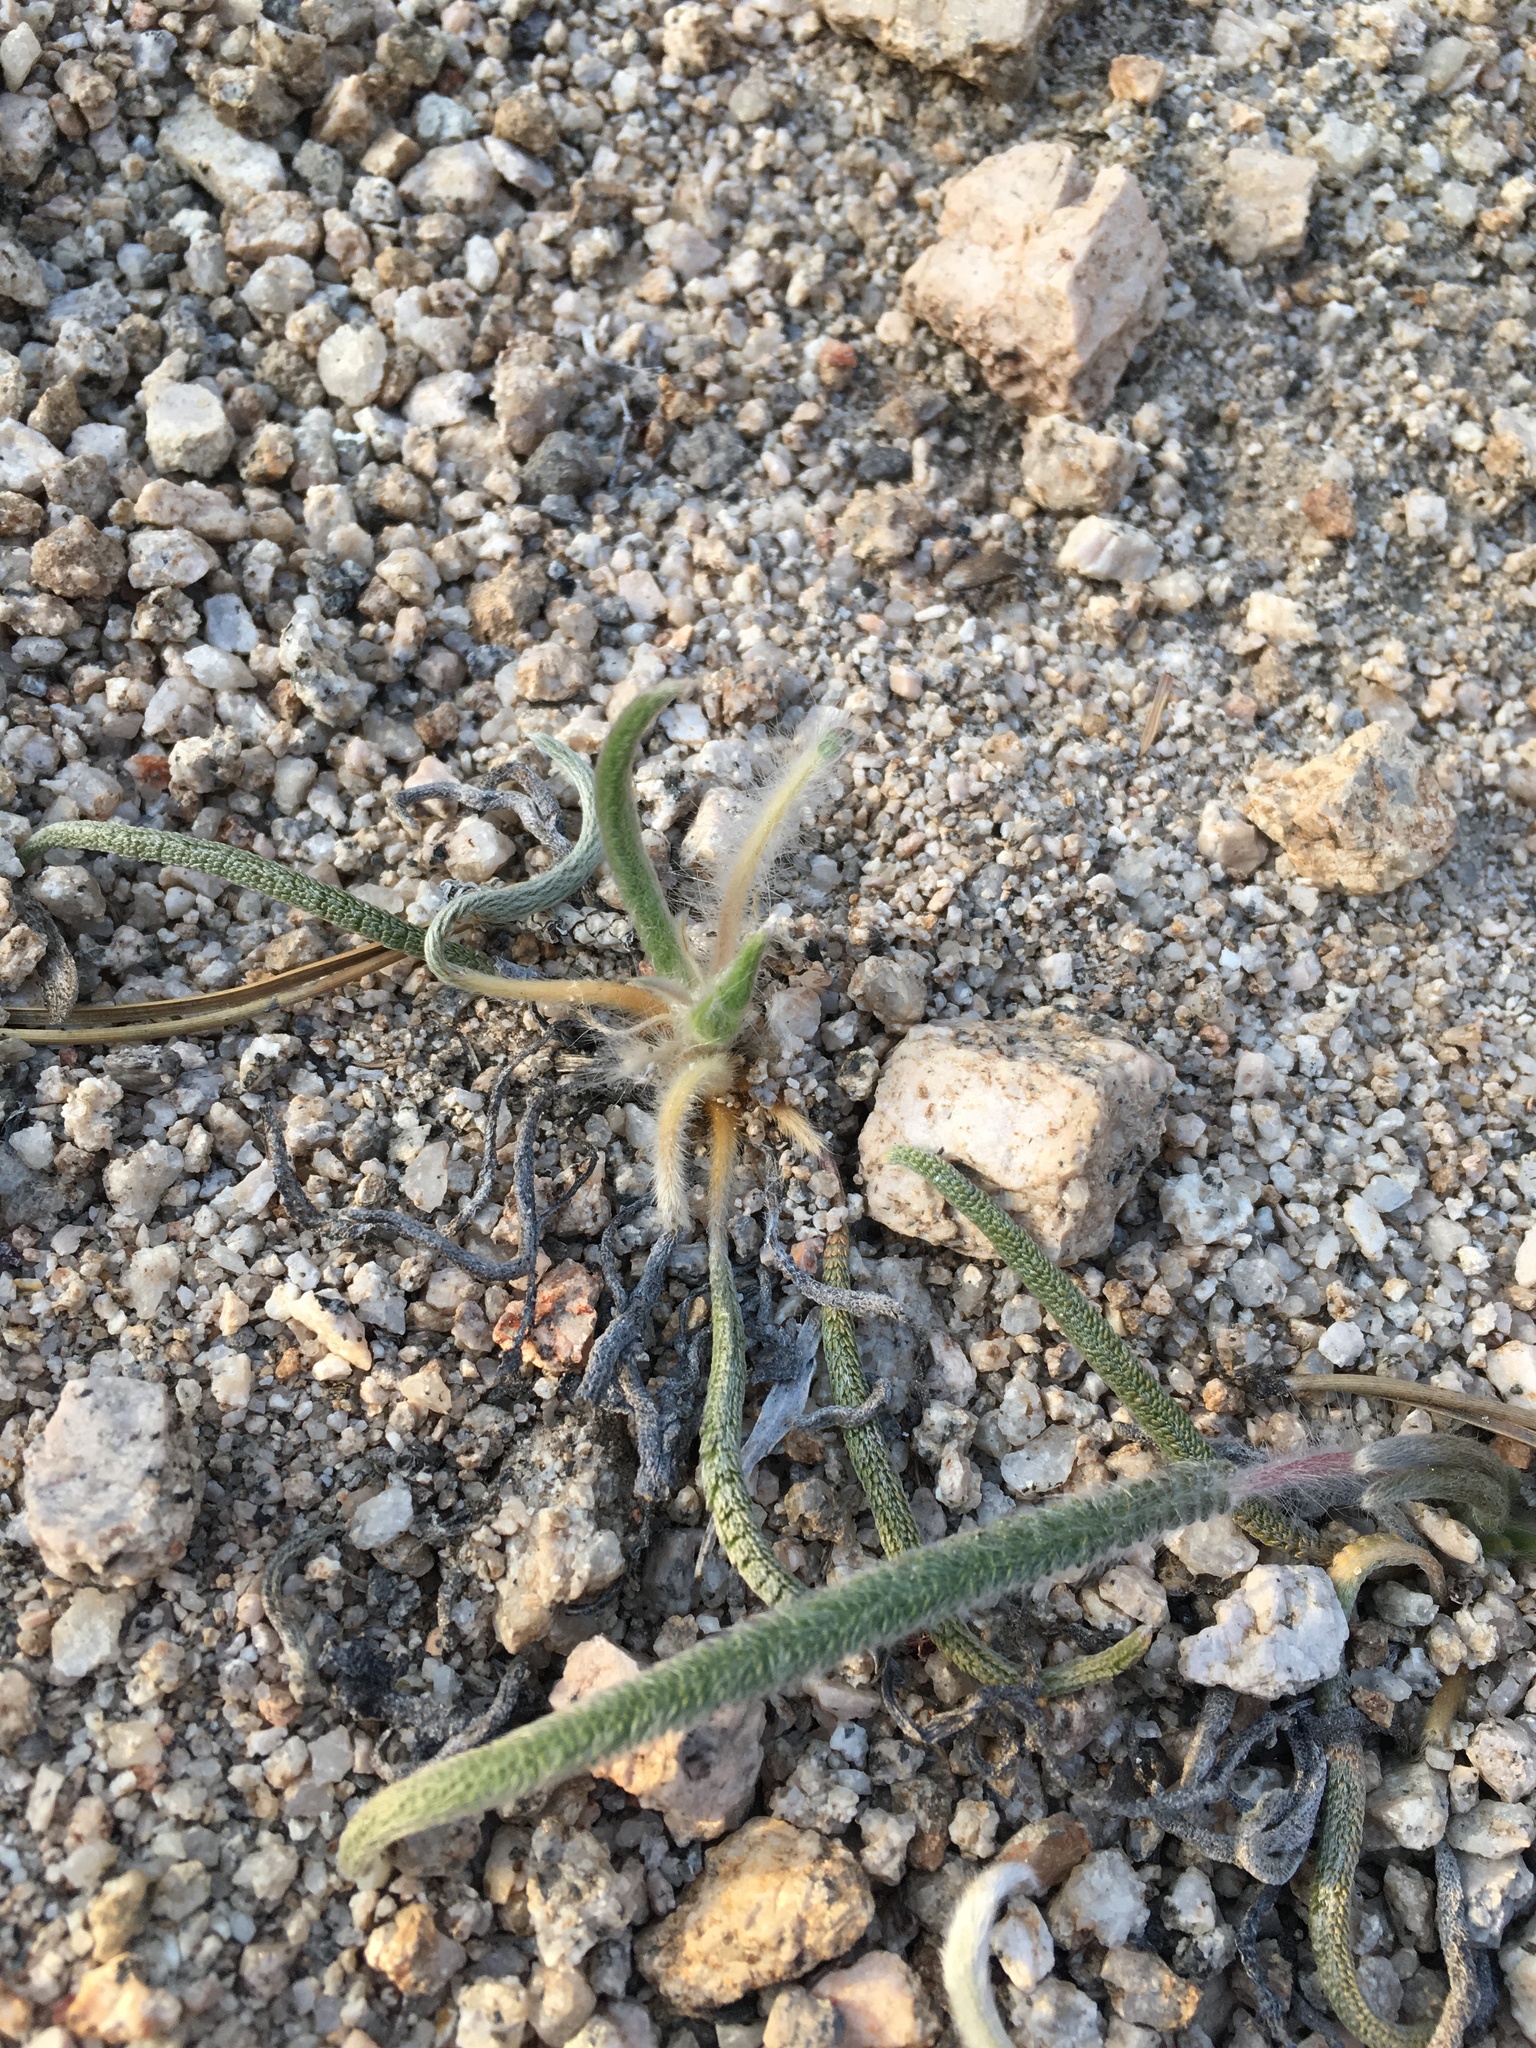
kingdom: Plantae
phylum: Tracheophyta
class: Magnoliopsida
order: Rosales
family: Rosaceae
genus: Potentilla
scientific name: Potentilla santolinoides
